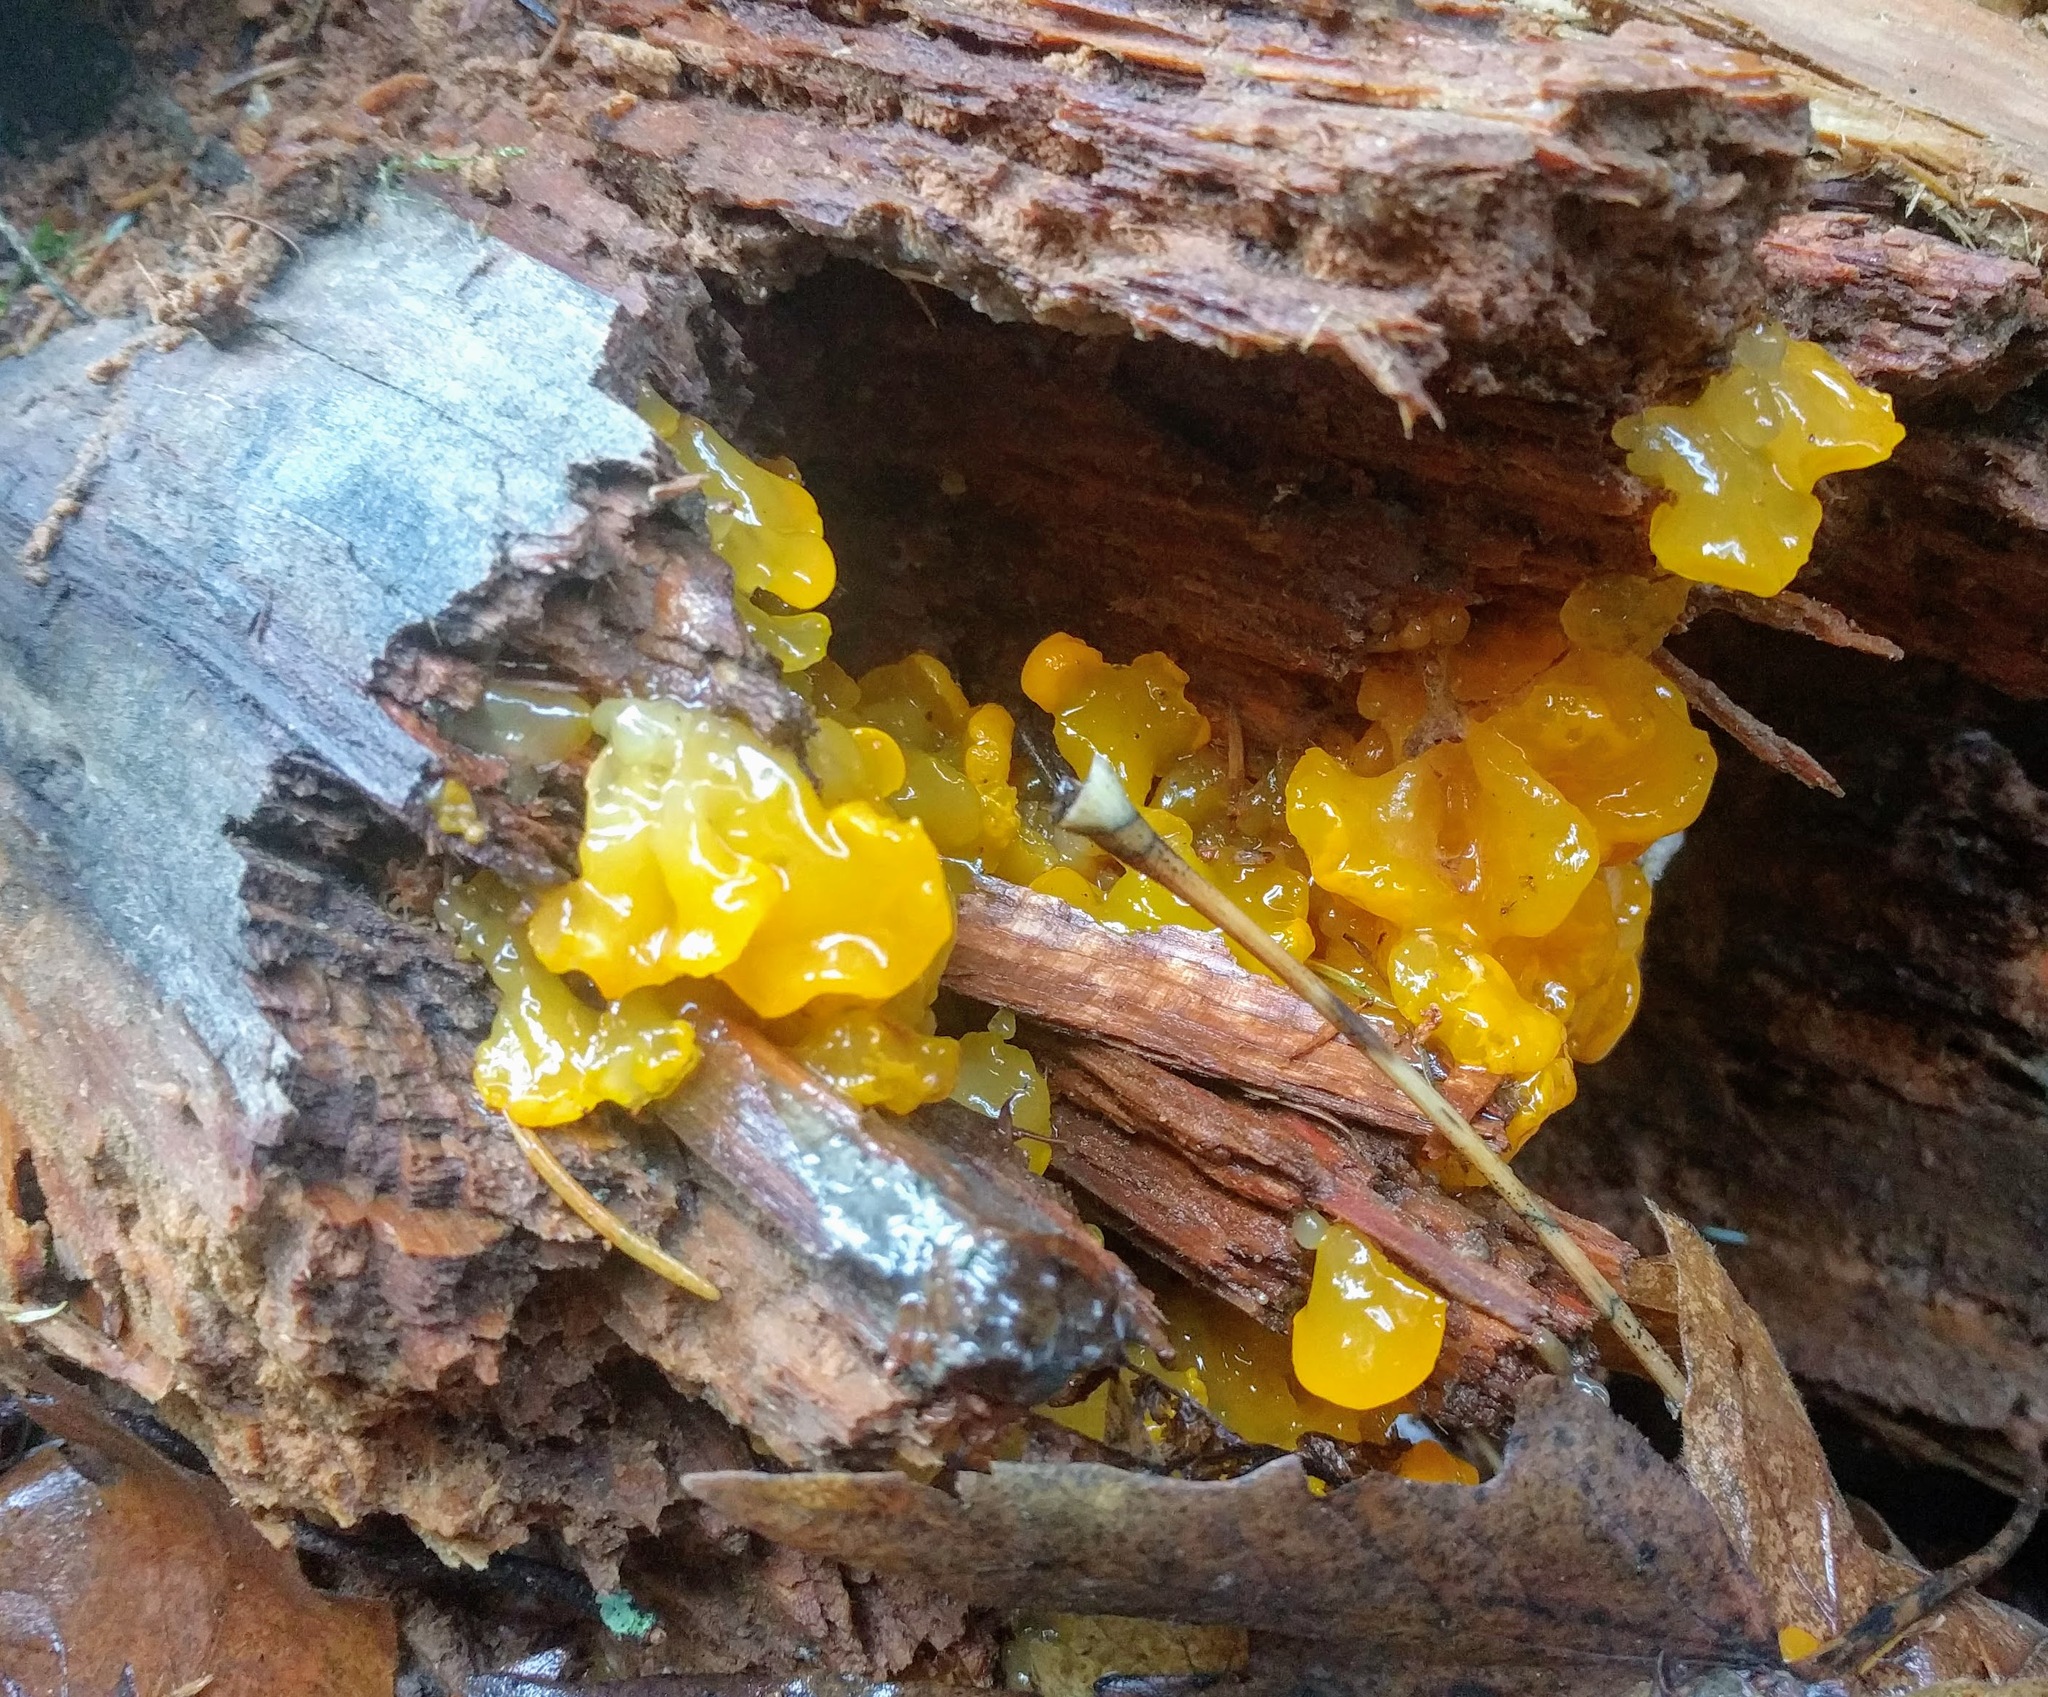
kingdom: Fungi
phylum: Basidiomycota
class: Dacrymycetes
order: Dacrymycetales
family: Dacrymycetaceae
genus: Dacrymyces
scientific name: Dacrymyces chrysospermus
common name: Orange jelly spot
